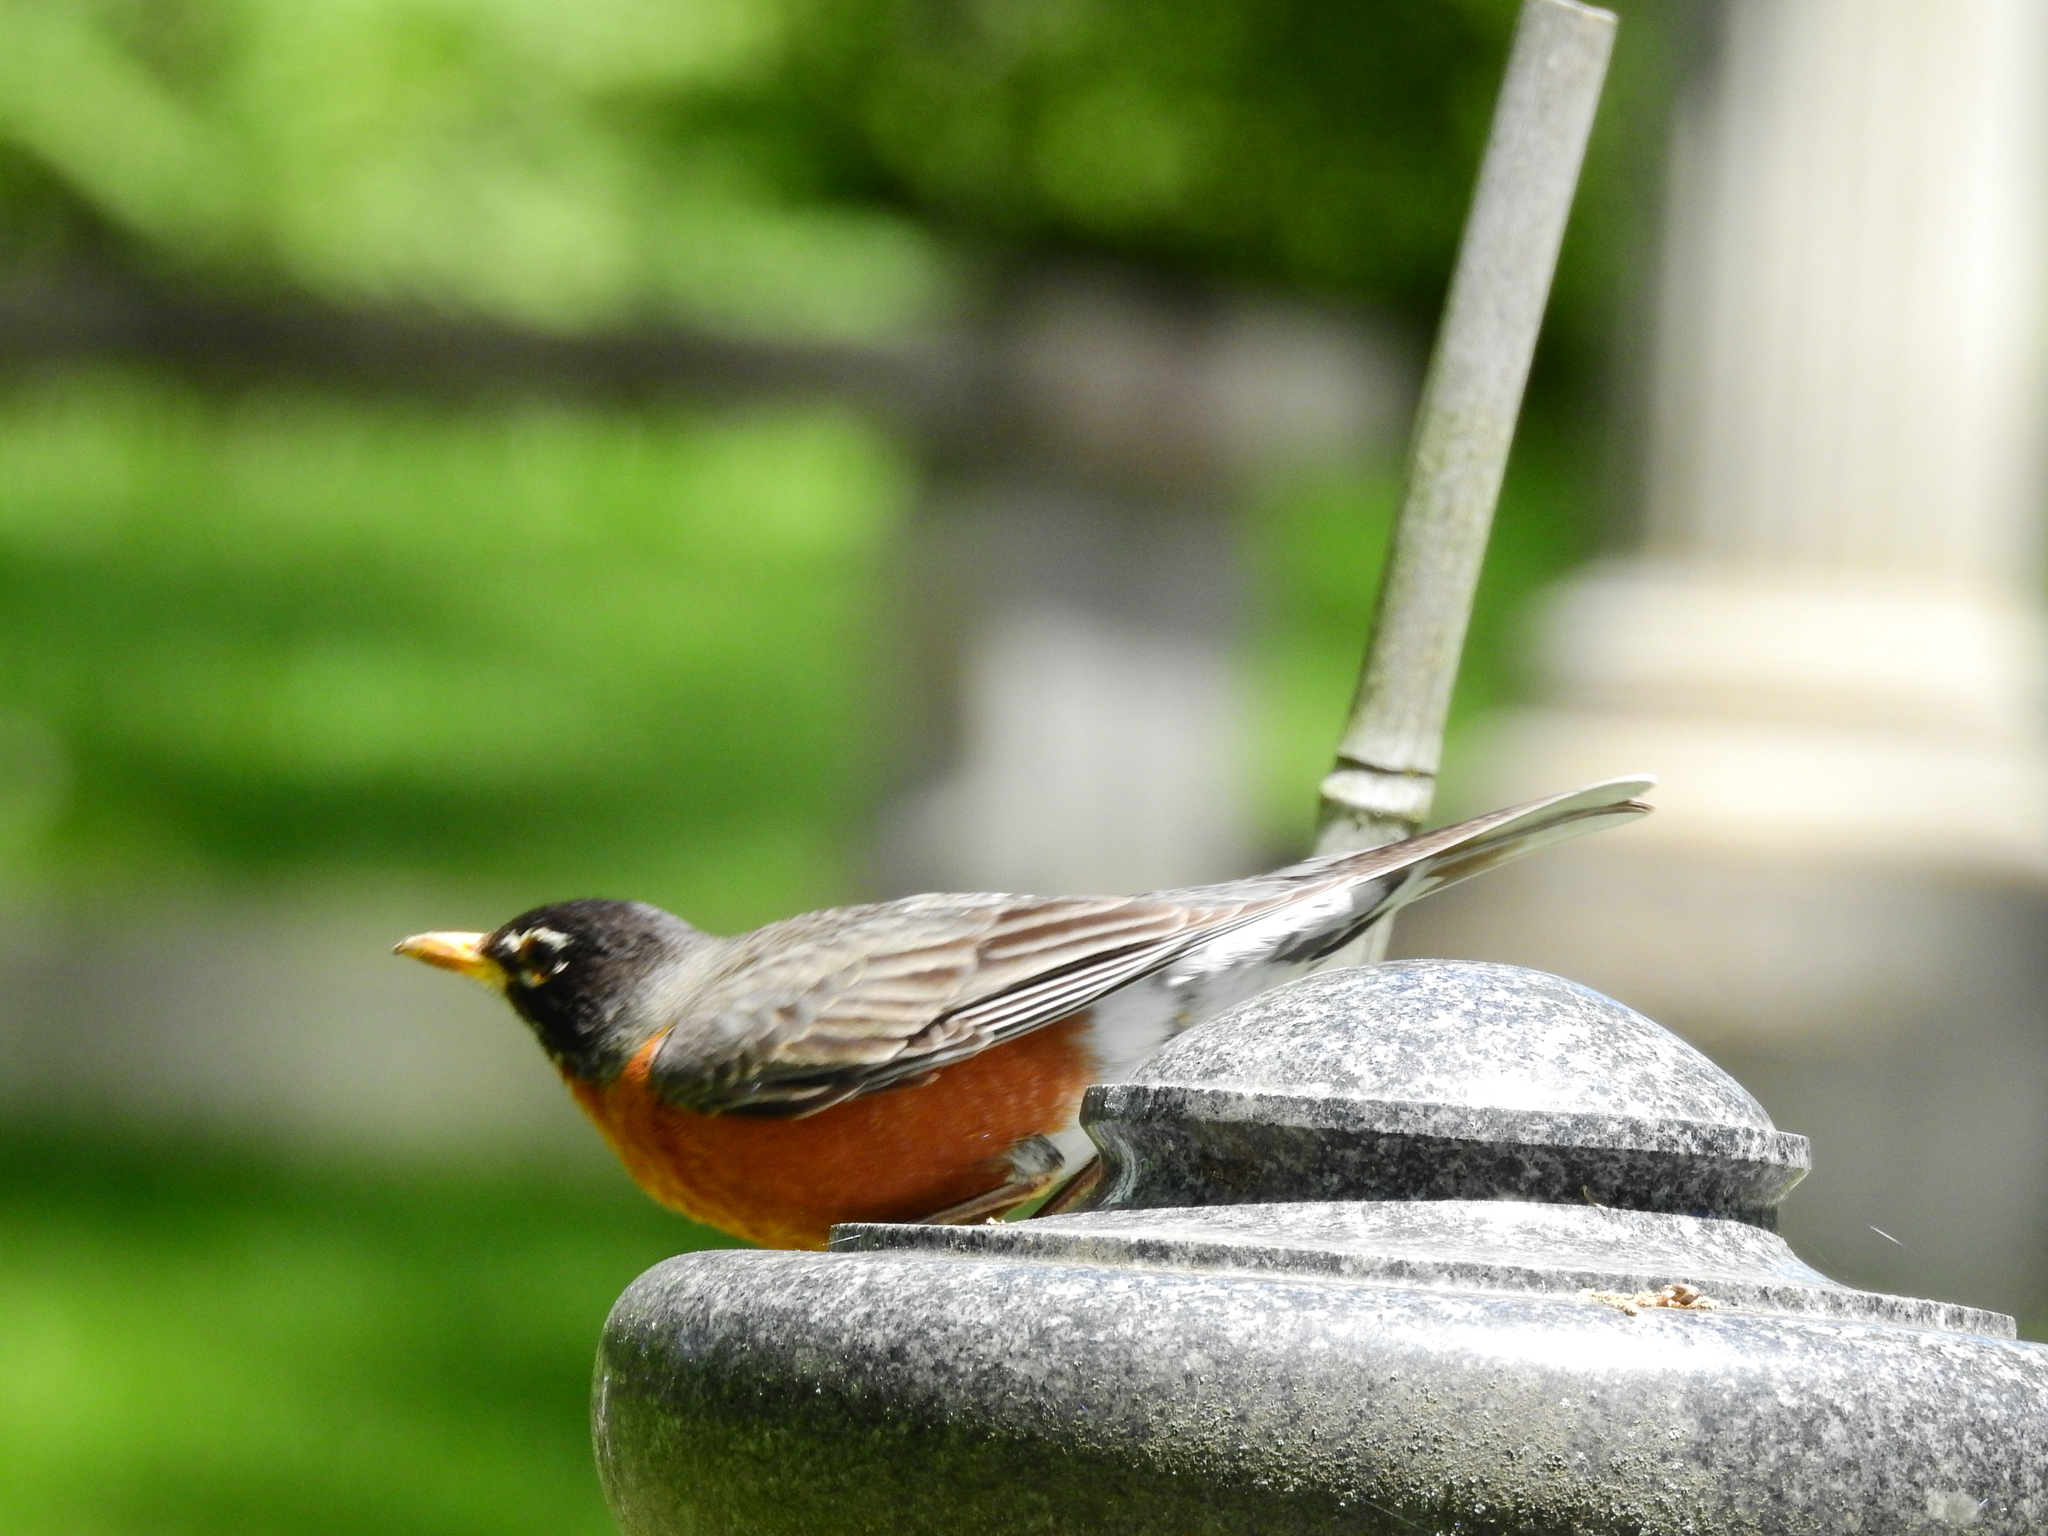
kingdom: Animalia
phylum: Chordata
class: Aves
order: Passeriformes
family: Turdidae
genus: Turdus
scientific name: Turdus migratorius
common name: American robin
